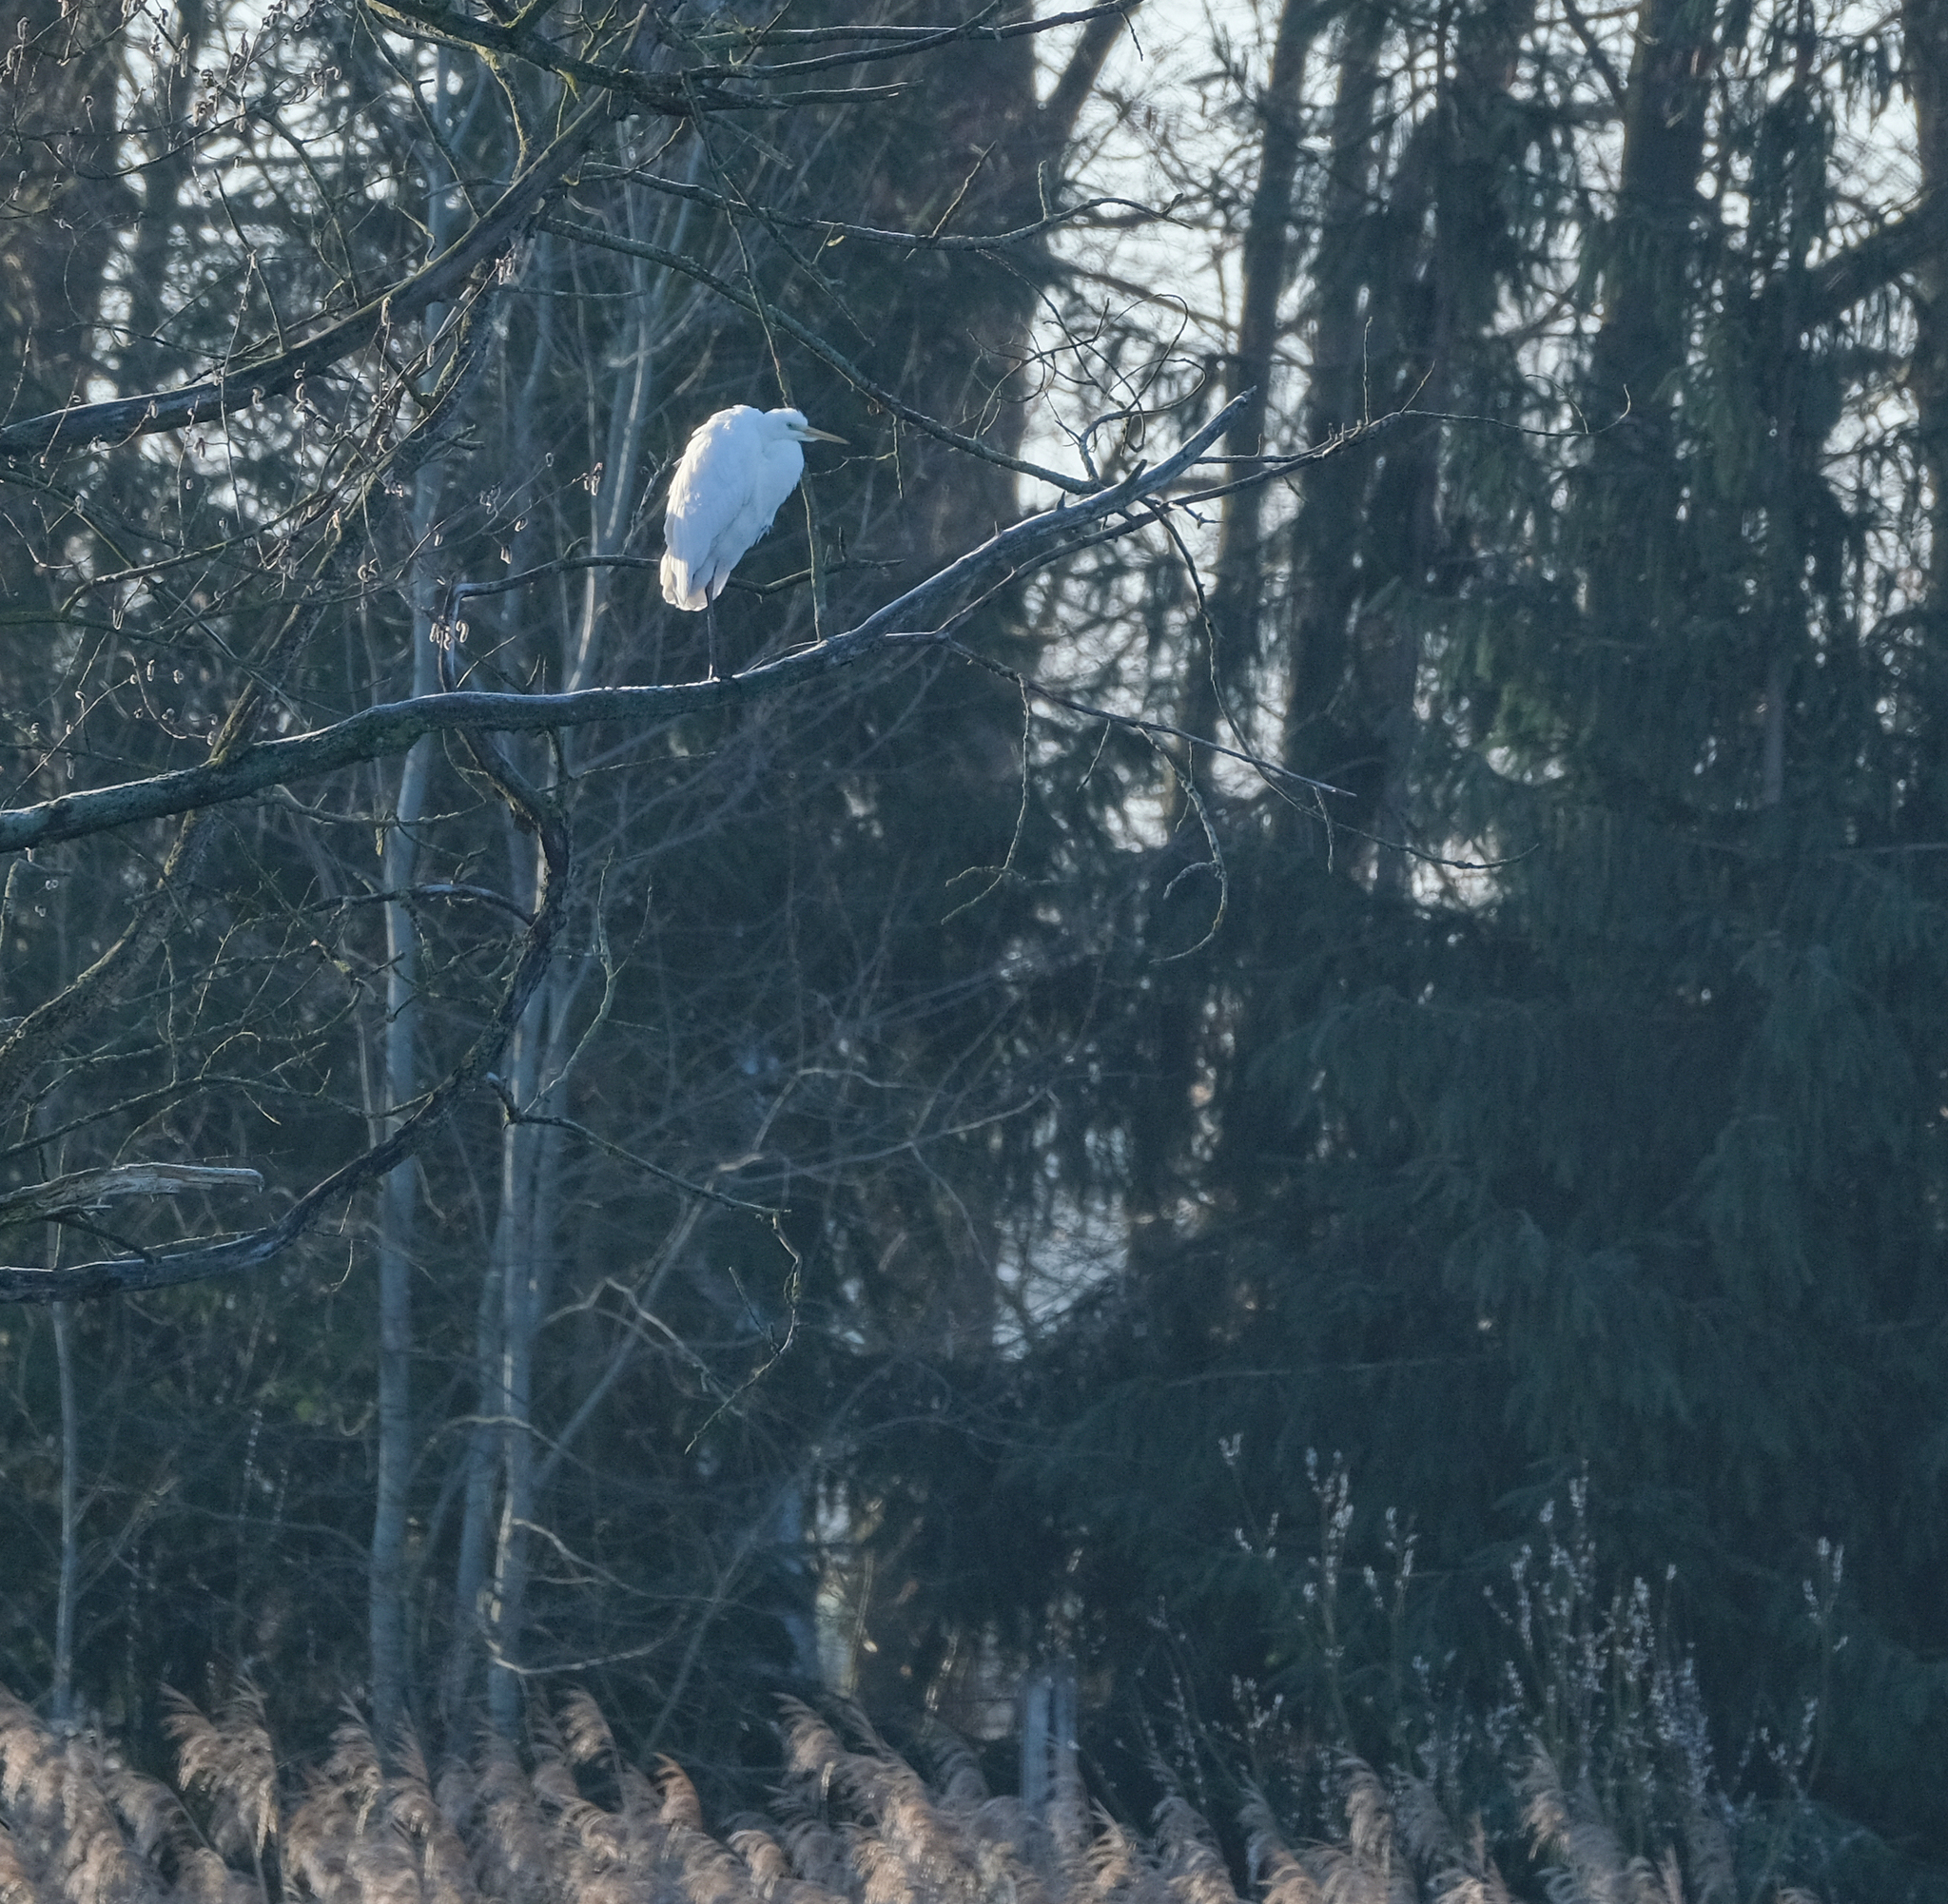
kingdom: Animalia
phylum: Chordata
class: Aves
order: Pelecaniformes
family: Ardeidae
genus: Ardea
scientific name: Ardea alba
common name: Great egret
